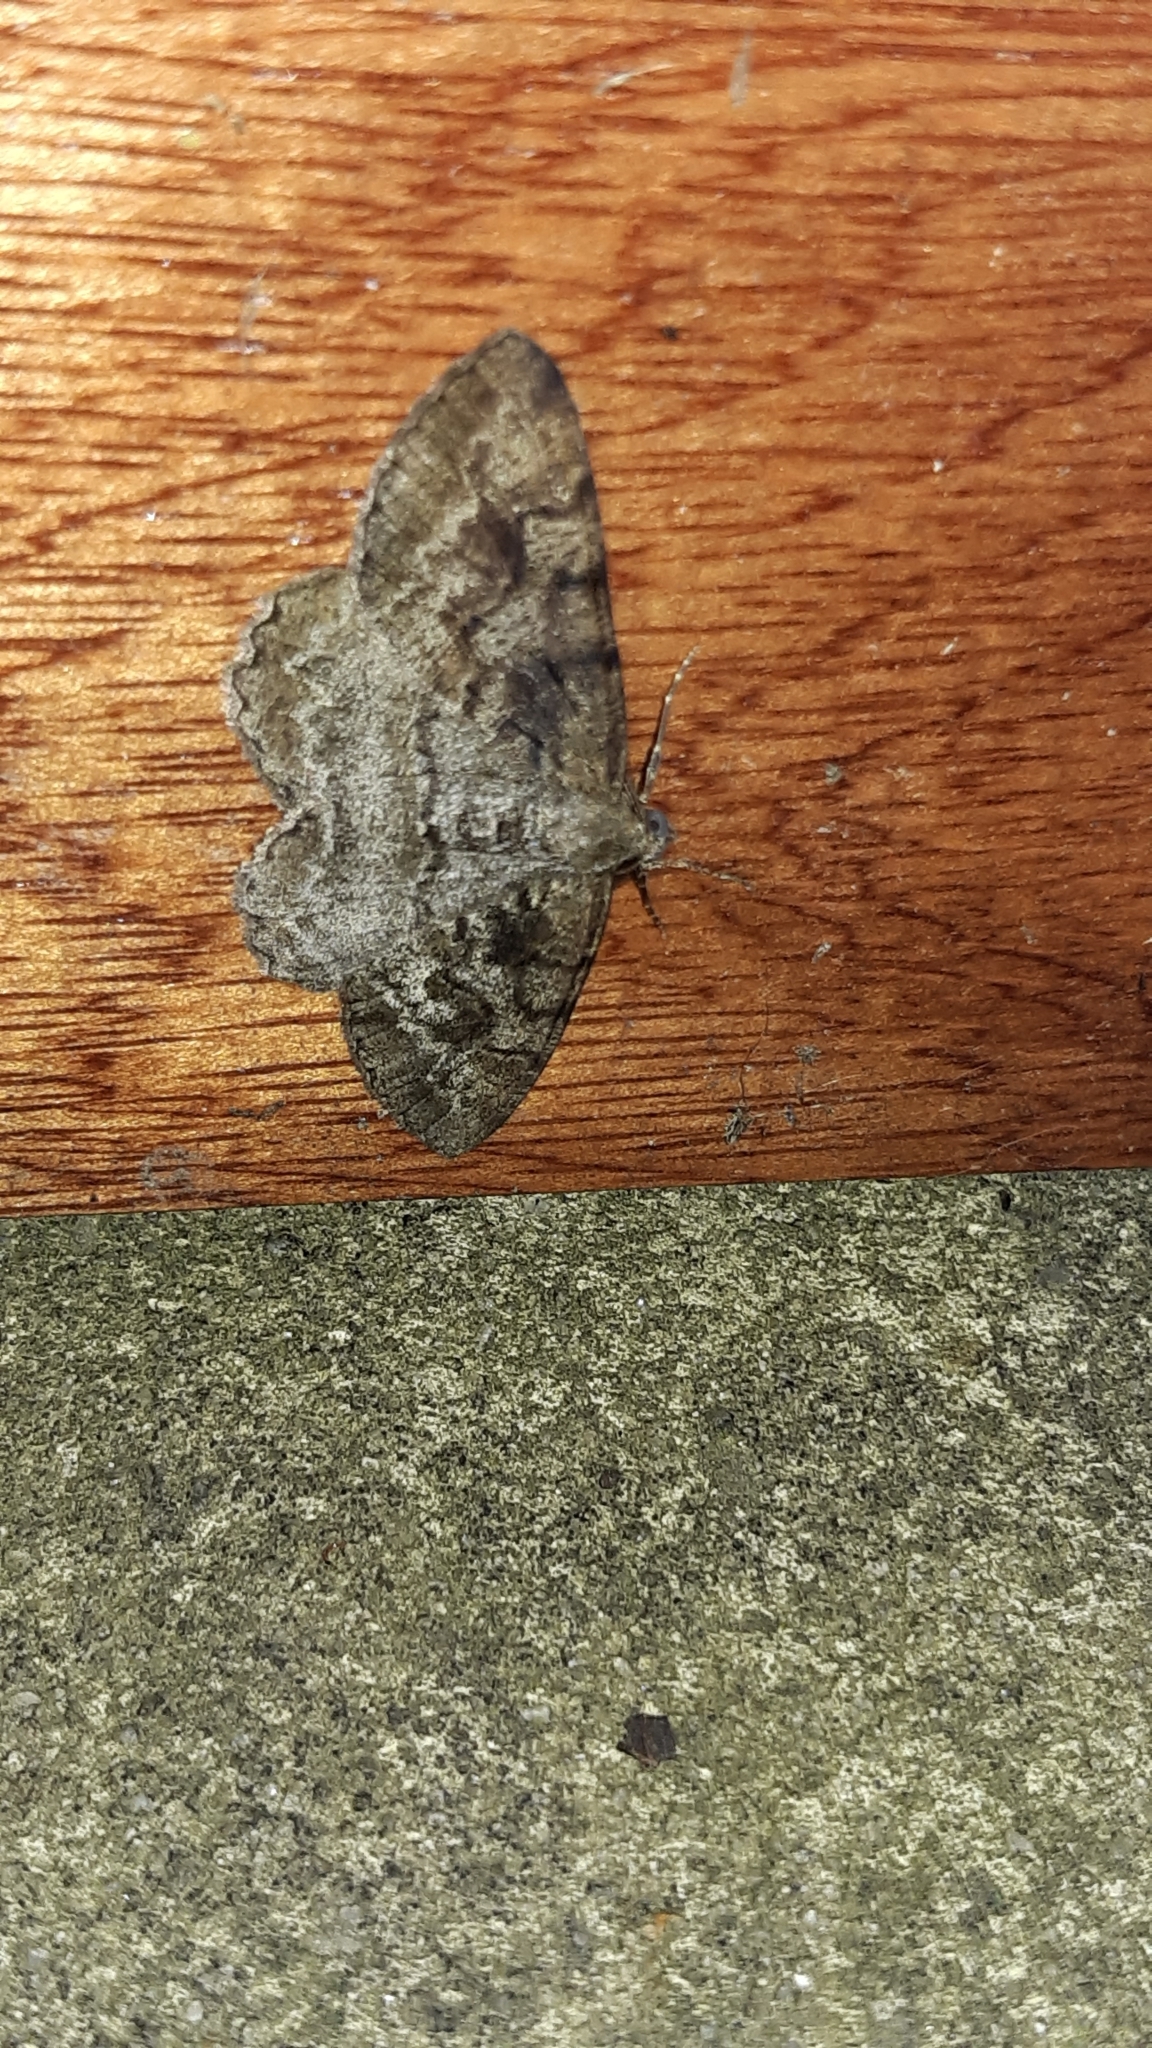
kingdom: Animalia
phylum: Arthropoda
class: Insecta
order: Lepidoptera
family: Geometridae
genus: Alcis
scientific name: Alcis repandata
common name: Mottled beauty
